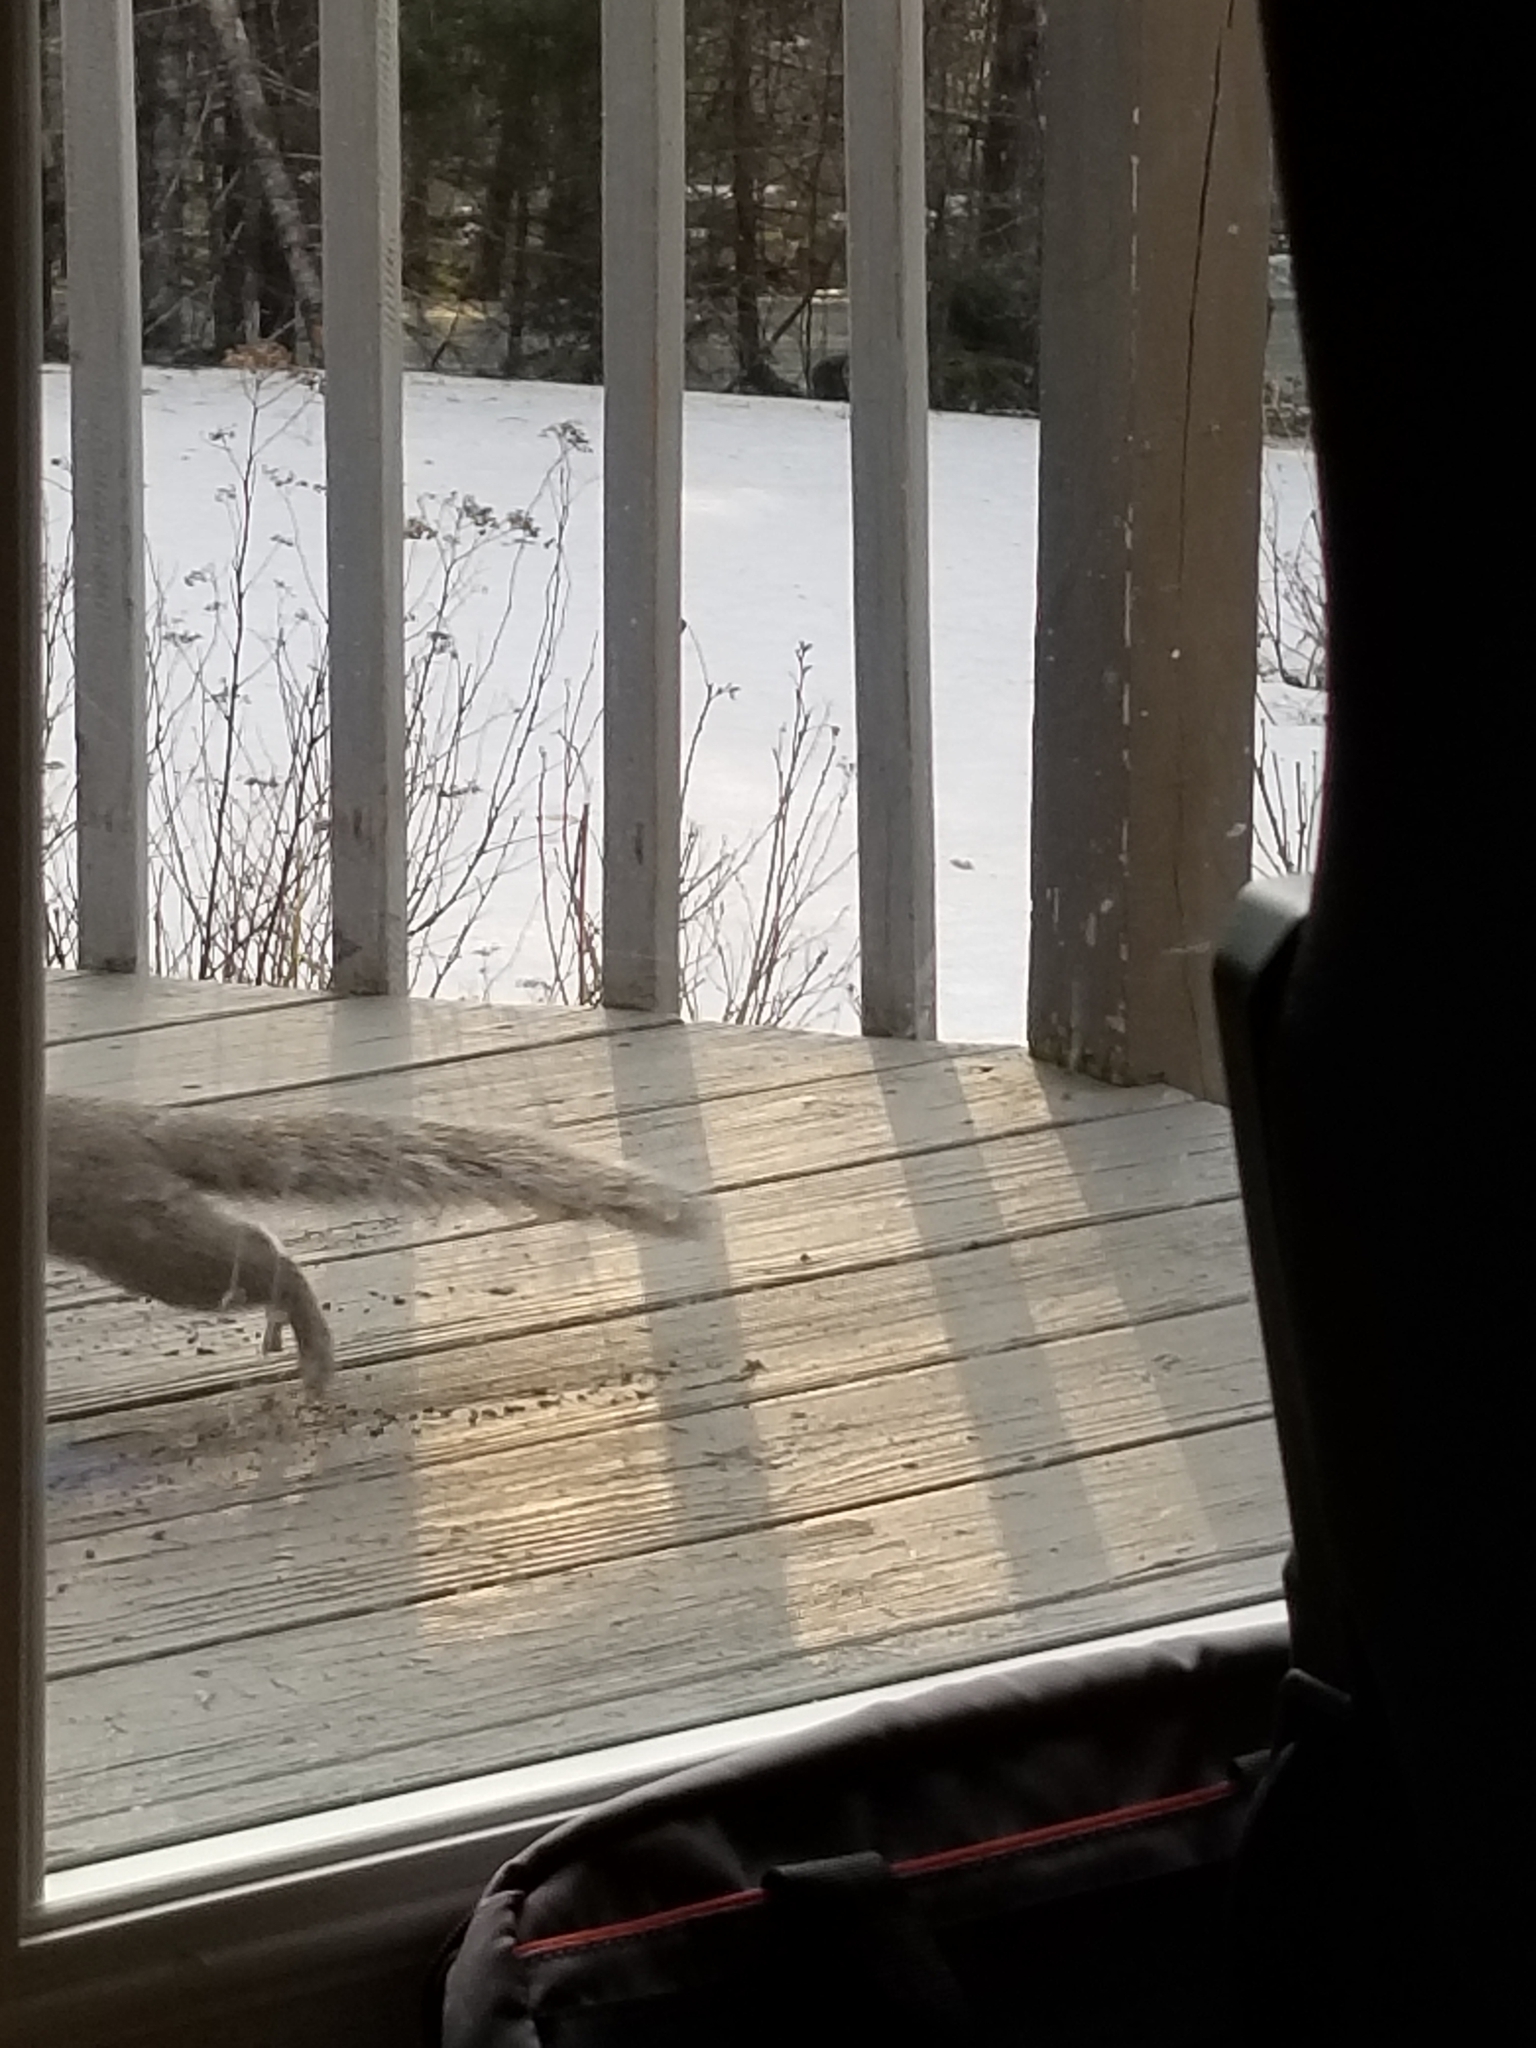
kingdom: Animalia
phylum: Chordata
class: Mammalia
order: Rodentia
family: Sciuridae
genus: Sciurus
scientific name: Sciurus carolinensis
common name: Eastern gray squirrel
